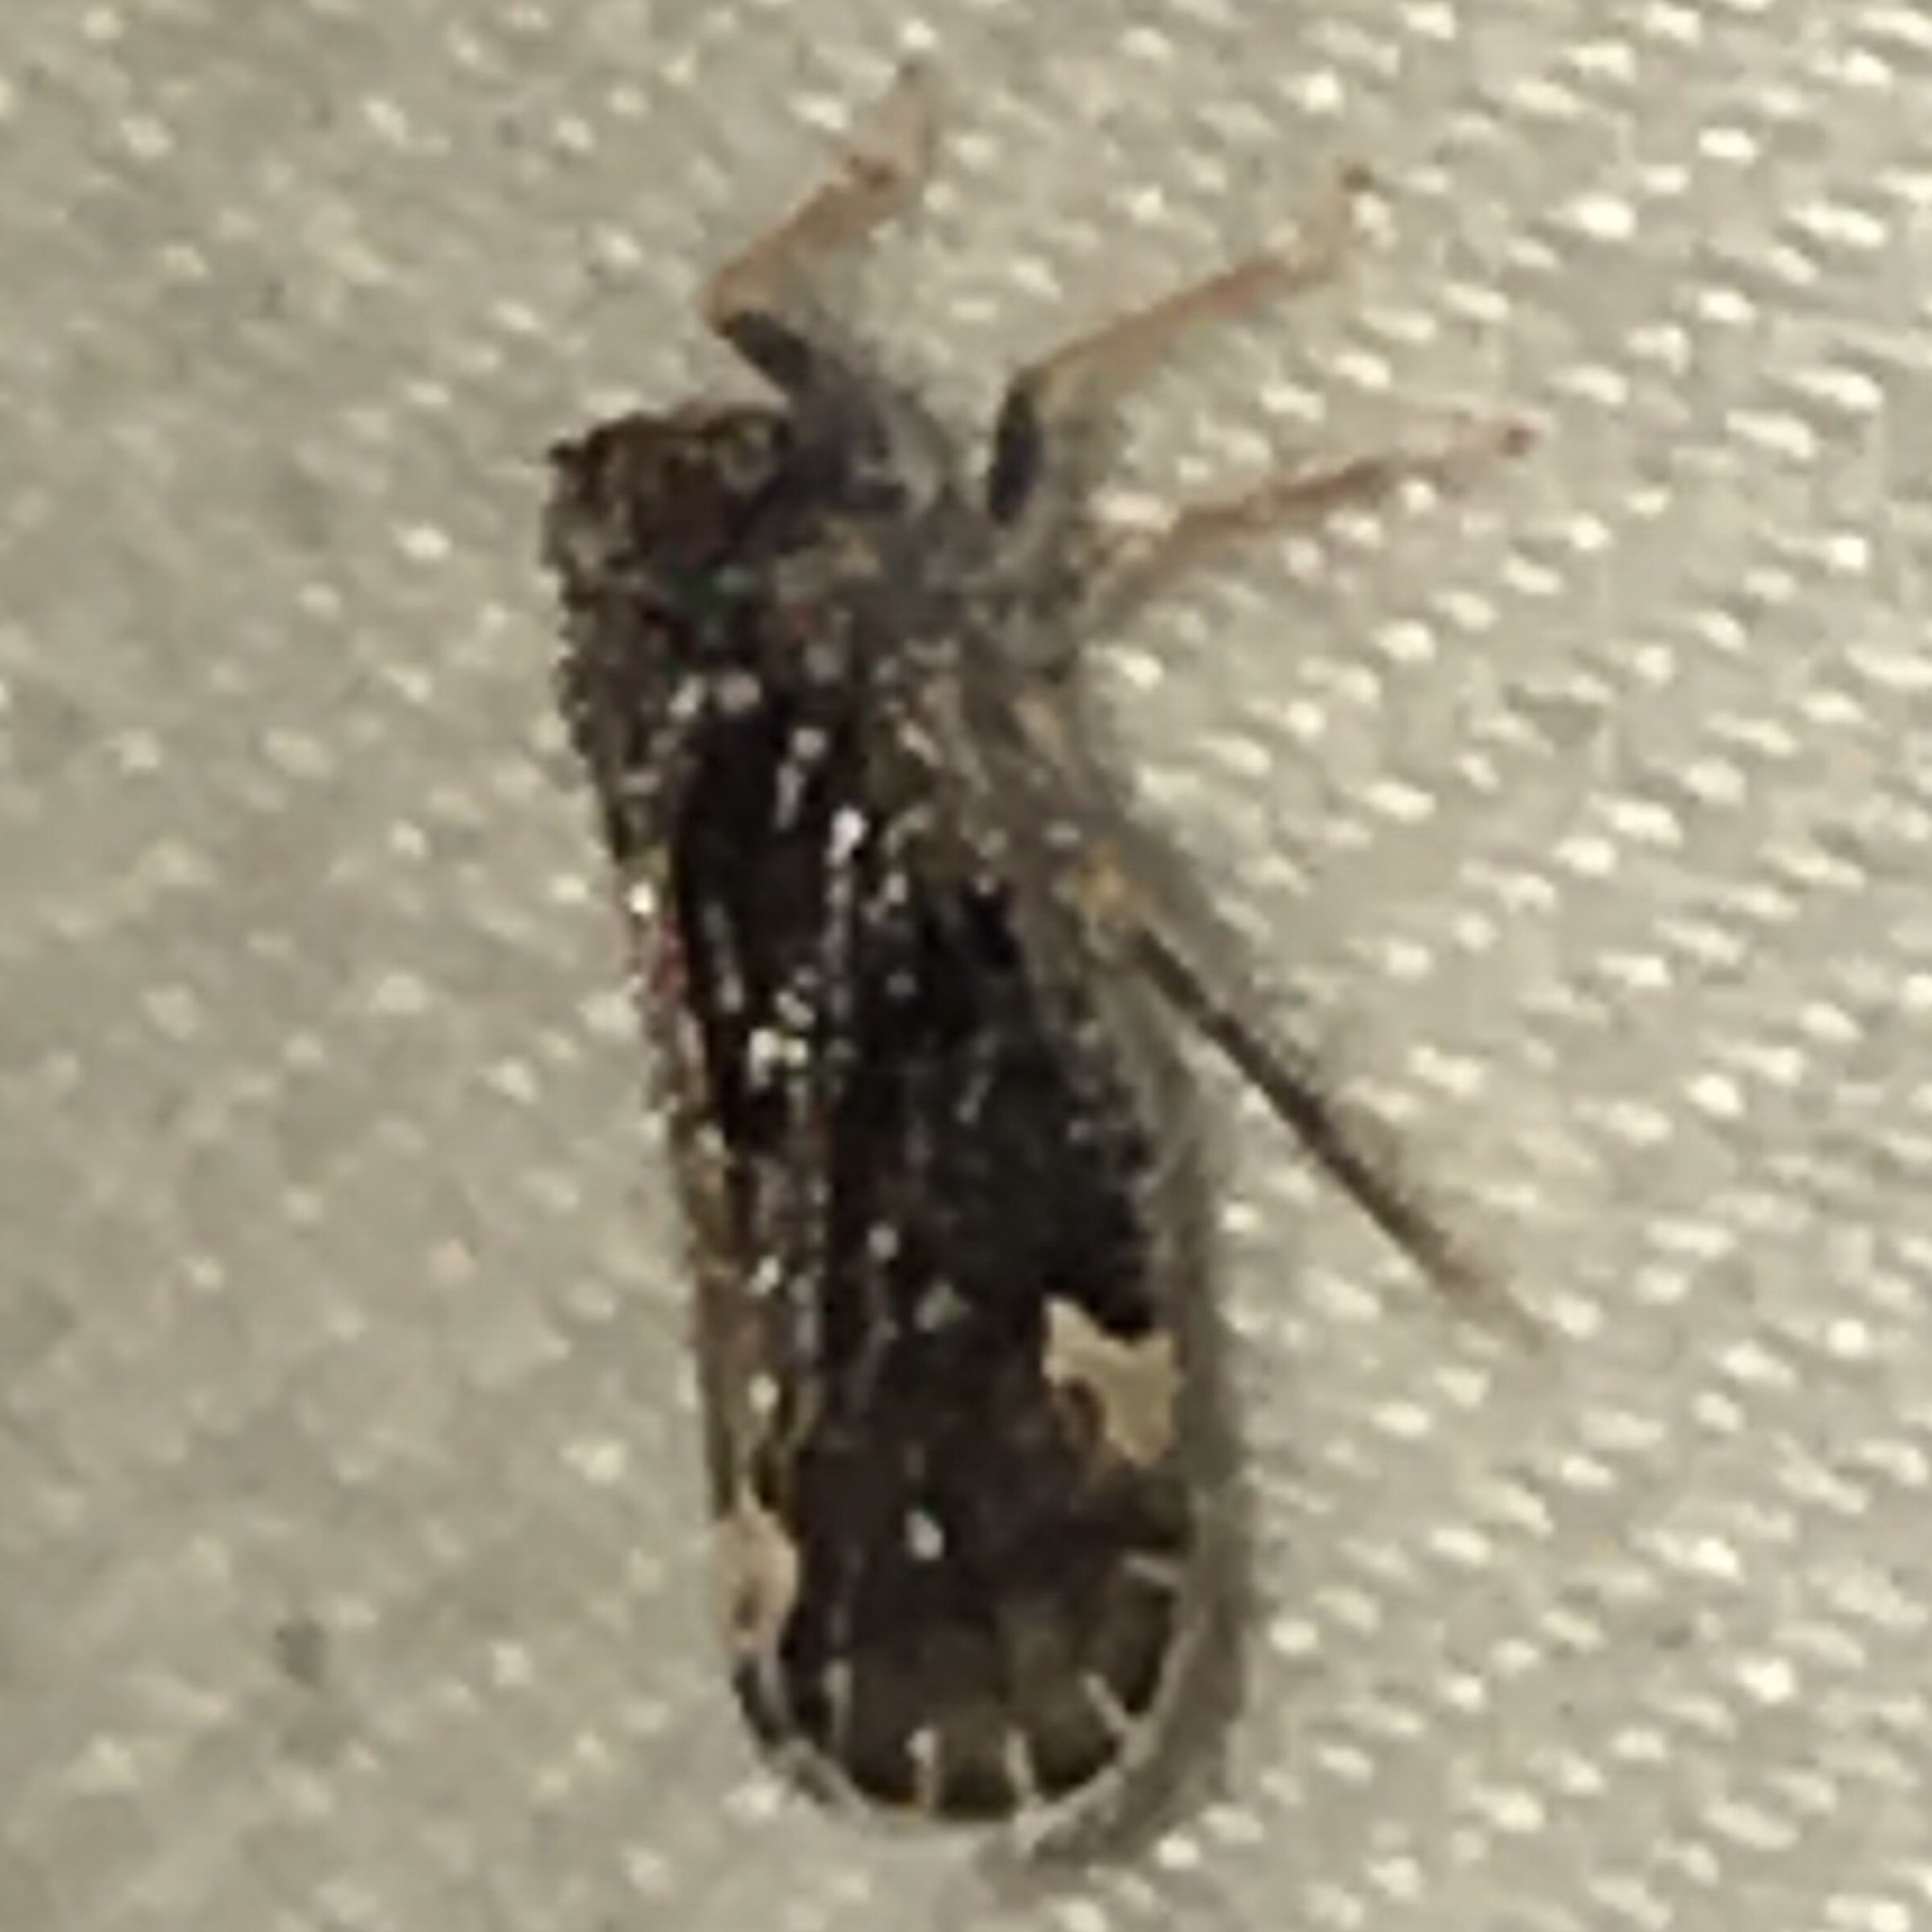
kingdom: Animalia
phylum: Arthropoda
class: Insecta
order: Hemiptera
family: Cixiidae
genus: Monorachis
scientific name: Monorachis sordulentus
